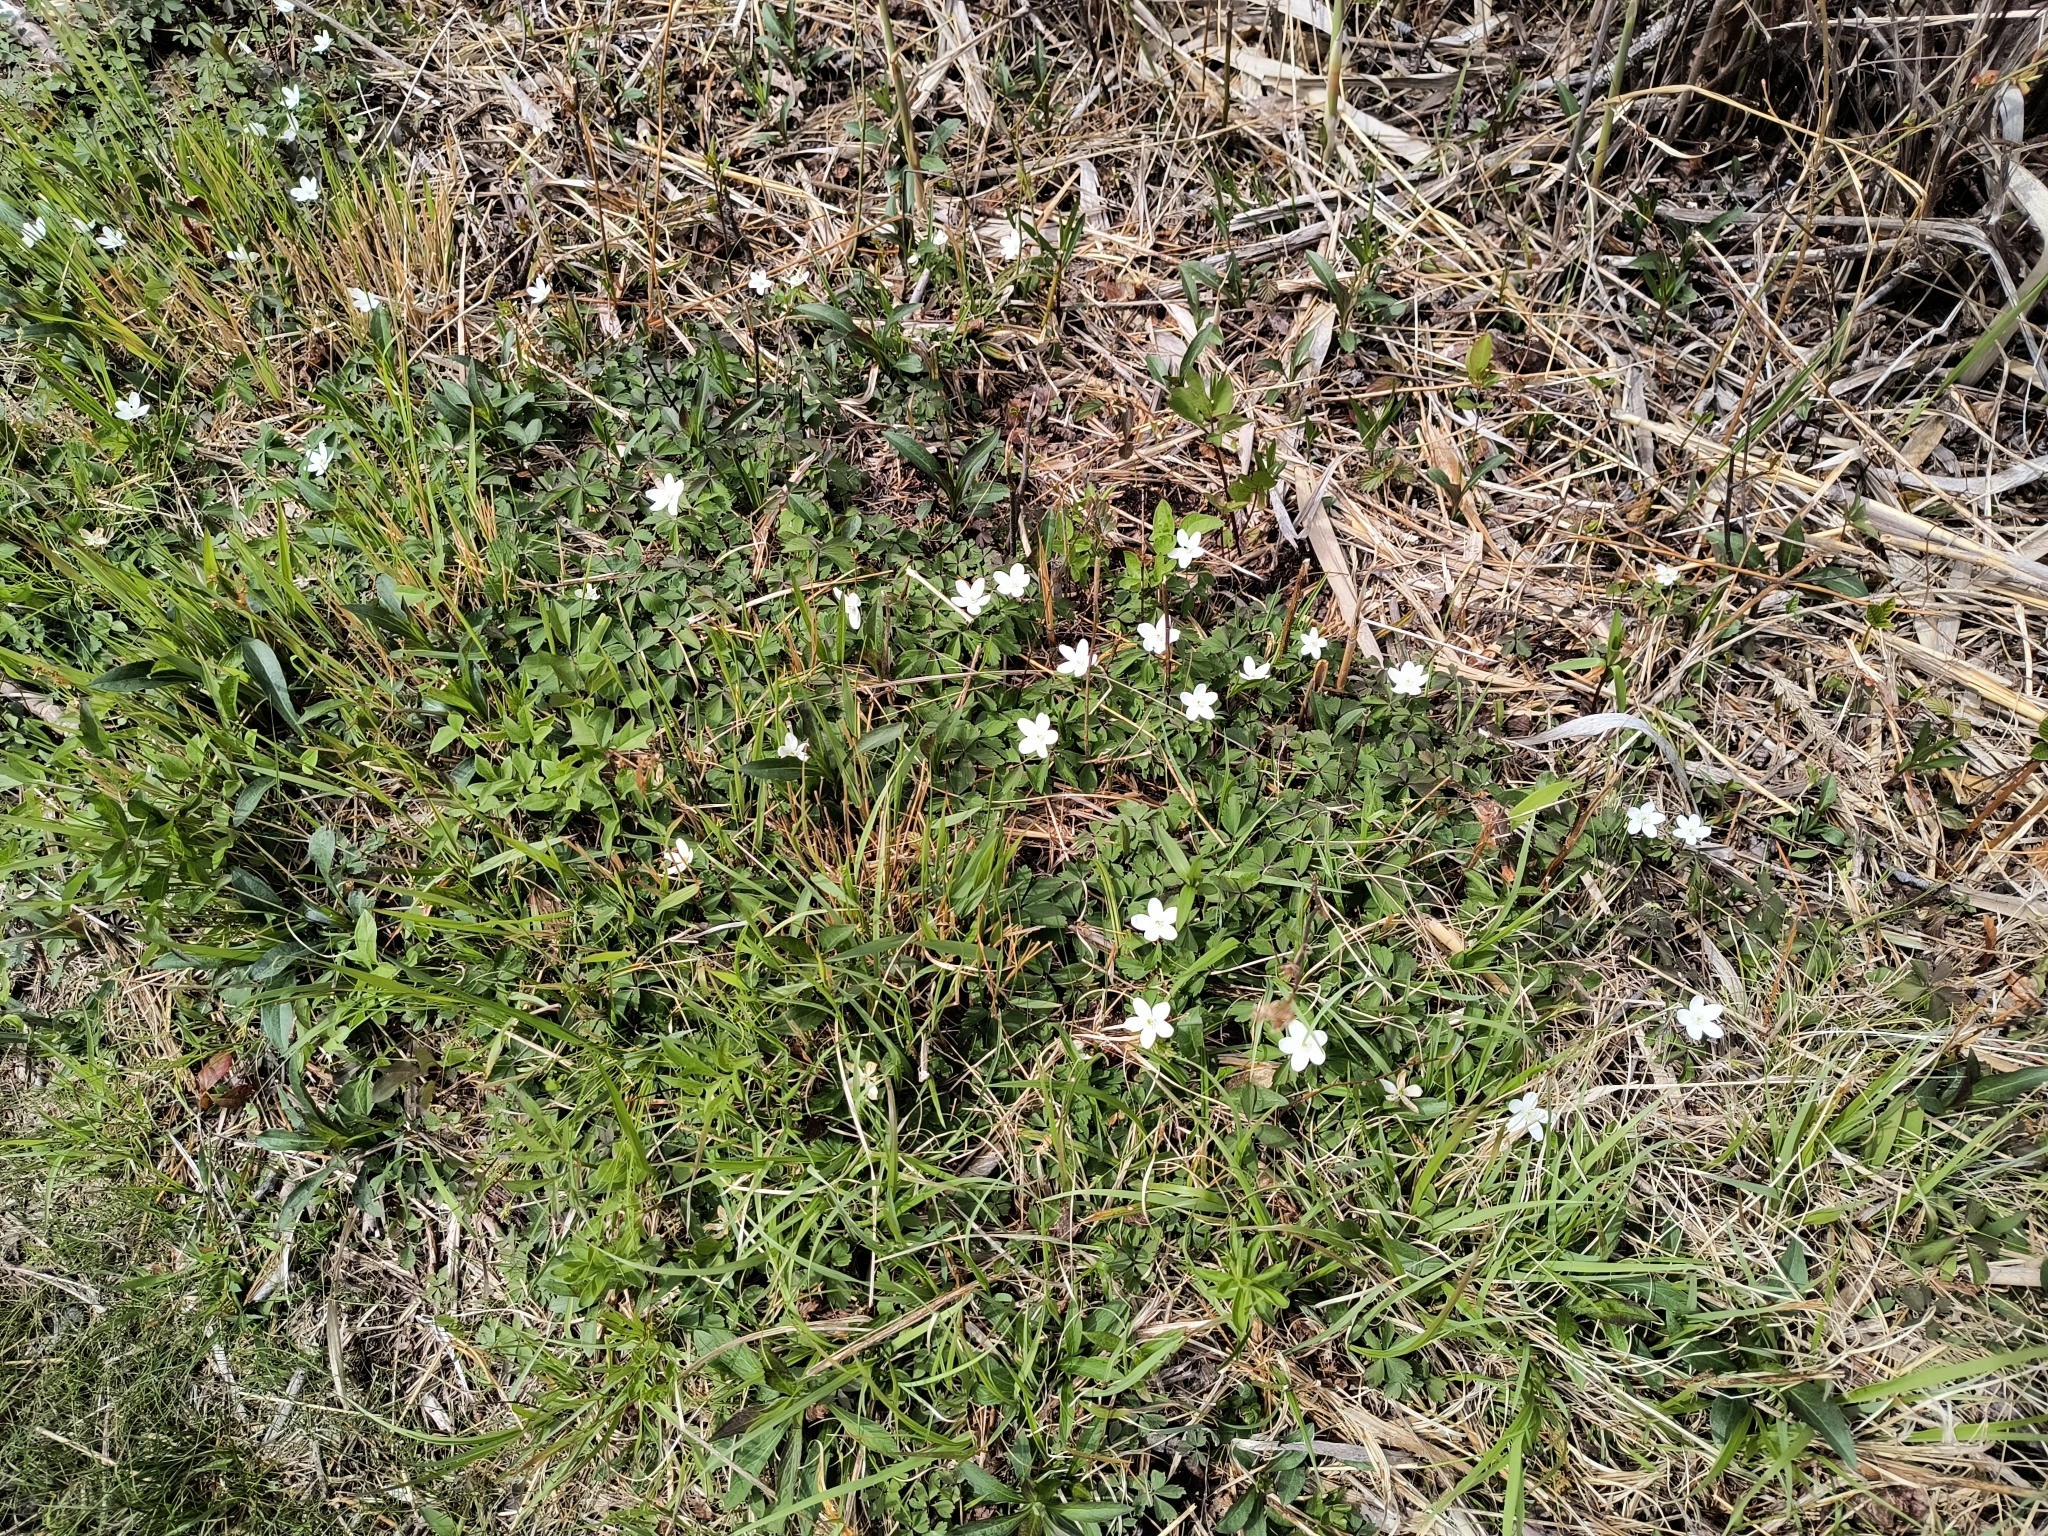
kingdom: Plantae
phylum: Tracheophyta
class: Magnoliopsida
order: Ranunculales
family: Ranunculaceae
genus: Anemone
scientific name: Anemone quinquefolia
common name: Wood anemone
